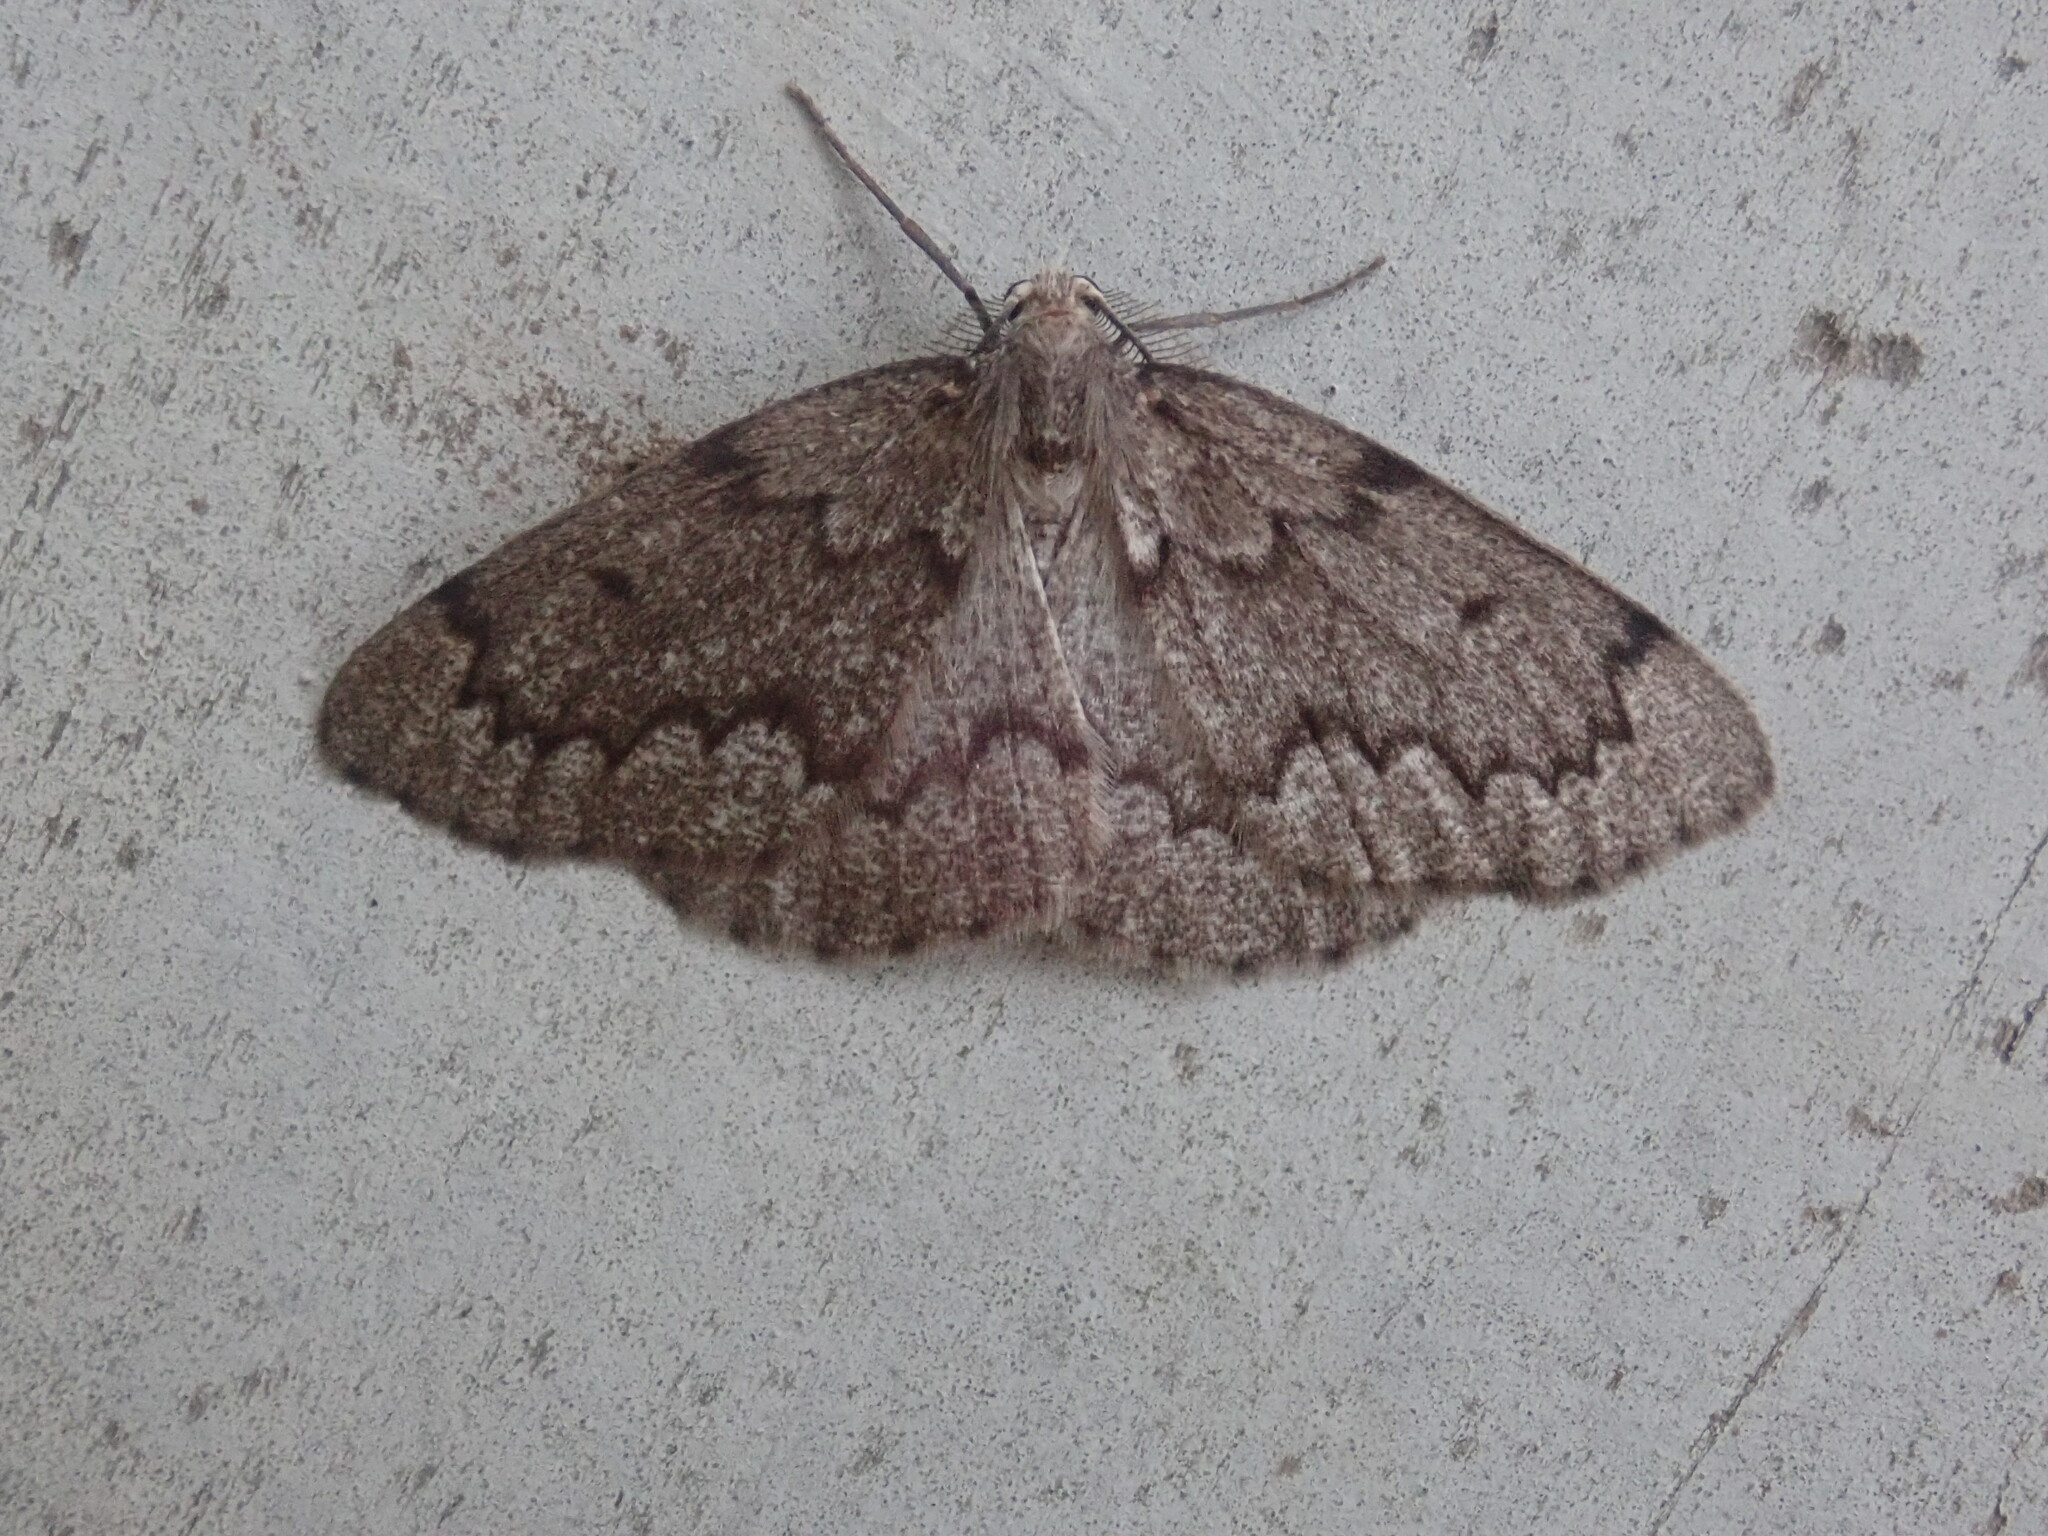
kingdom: Animalia
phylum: Arthropoda
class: Insecta
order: Lepidoptera
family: Geometridae
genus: Nepytia
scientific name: Nepytia canosaria
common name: False hemlock looper
